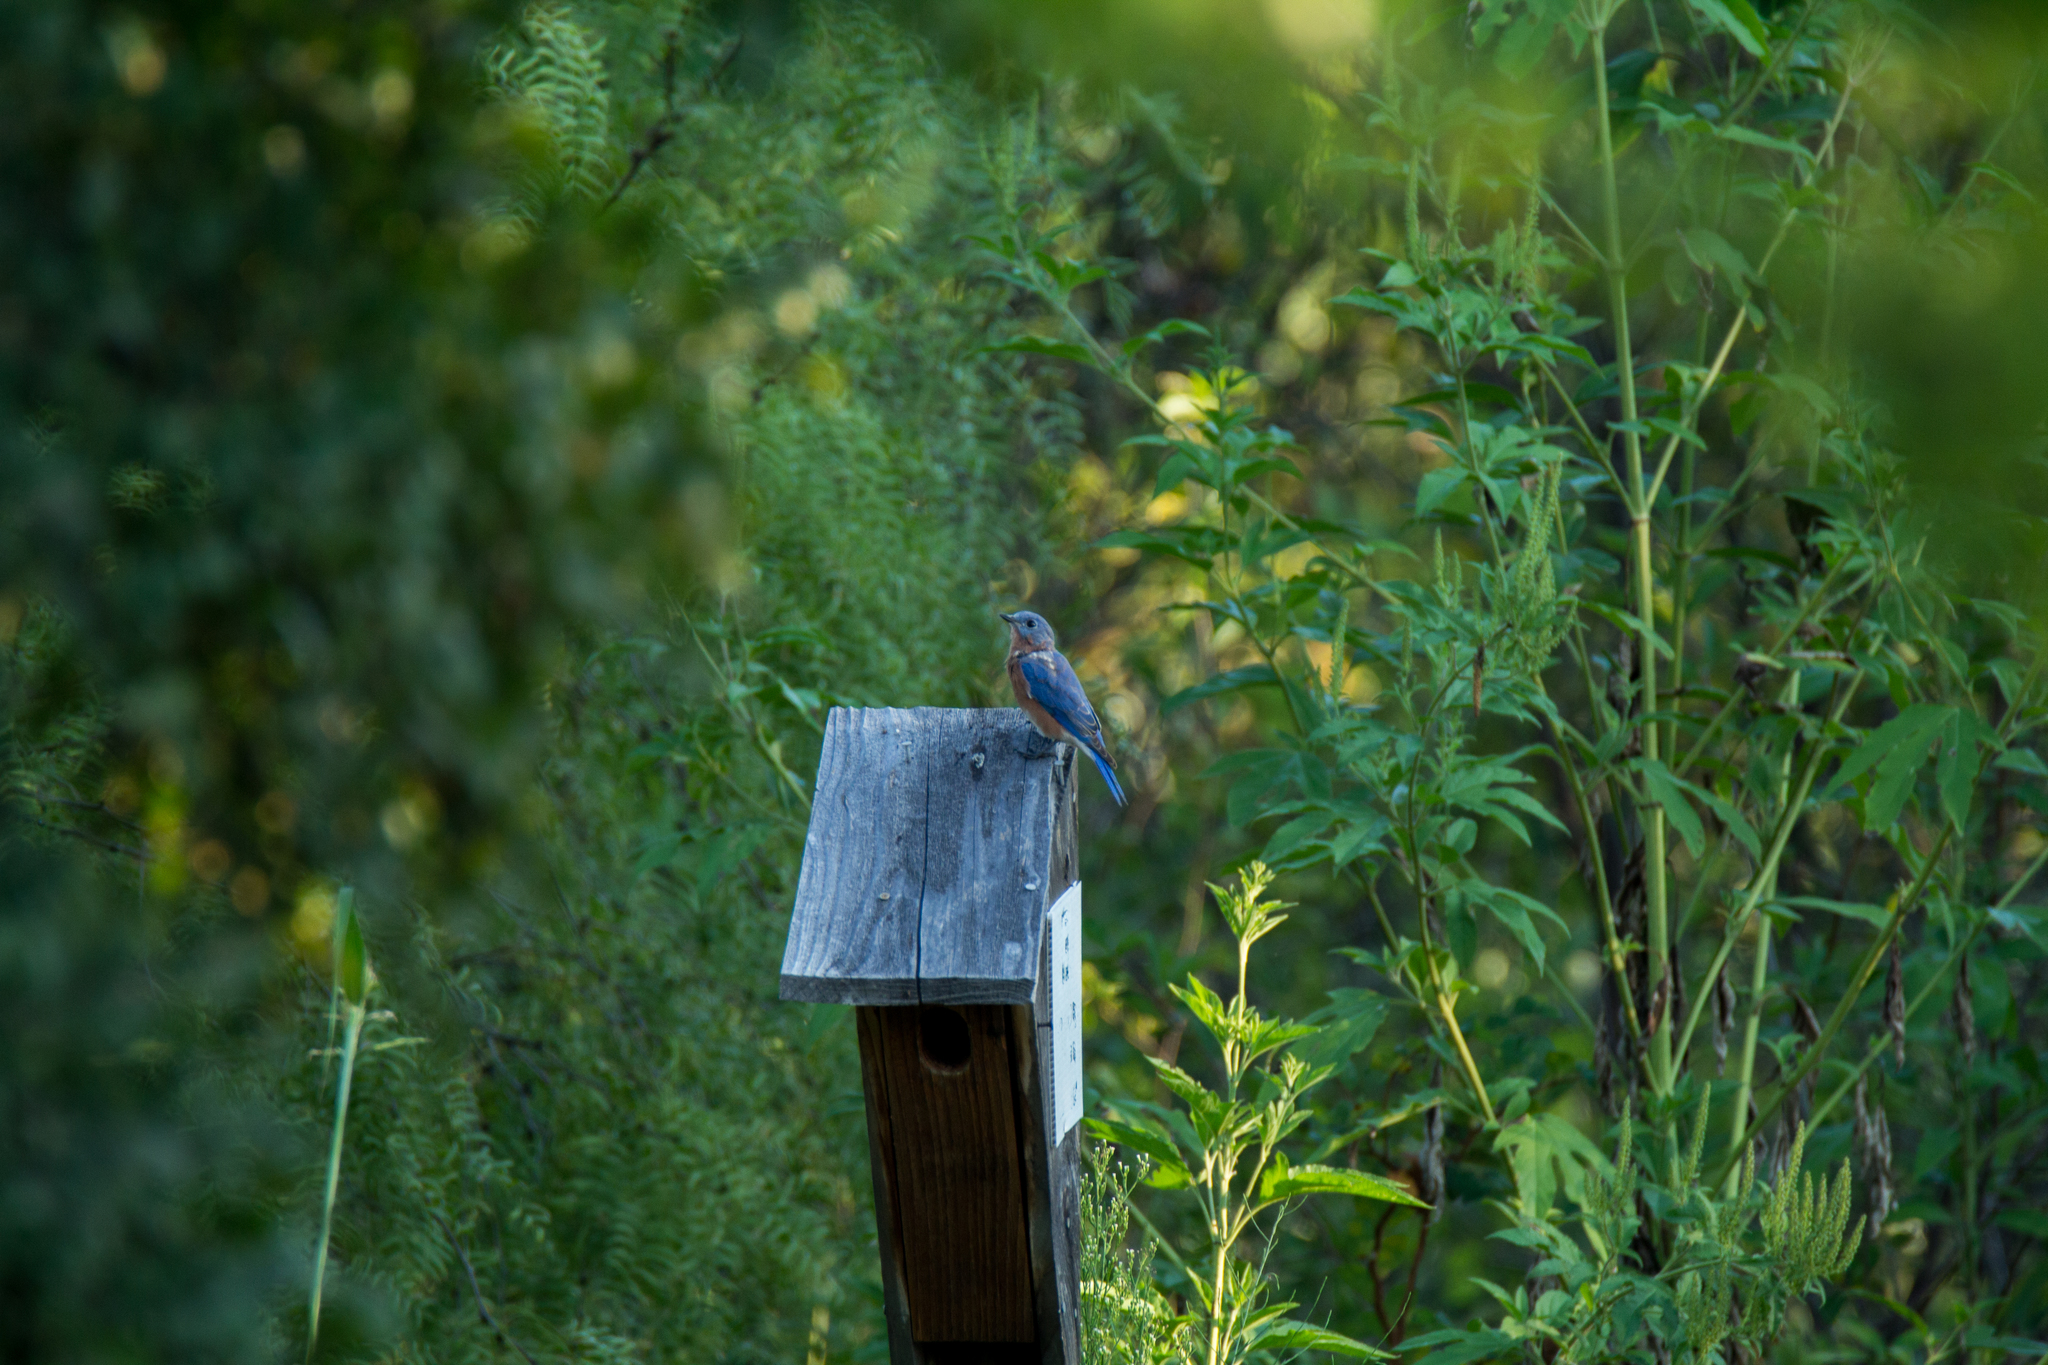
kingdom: Animalia
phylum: Chordata
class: Aves
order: Passeriformes
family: Turdidae
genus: Sialia
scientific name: Sialia sialis
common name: Eastern bluebird
